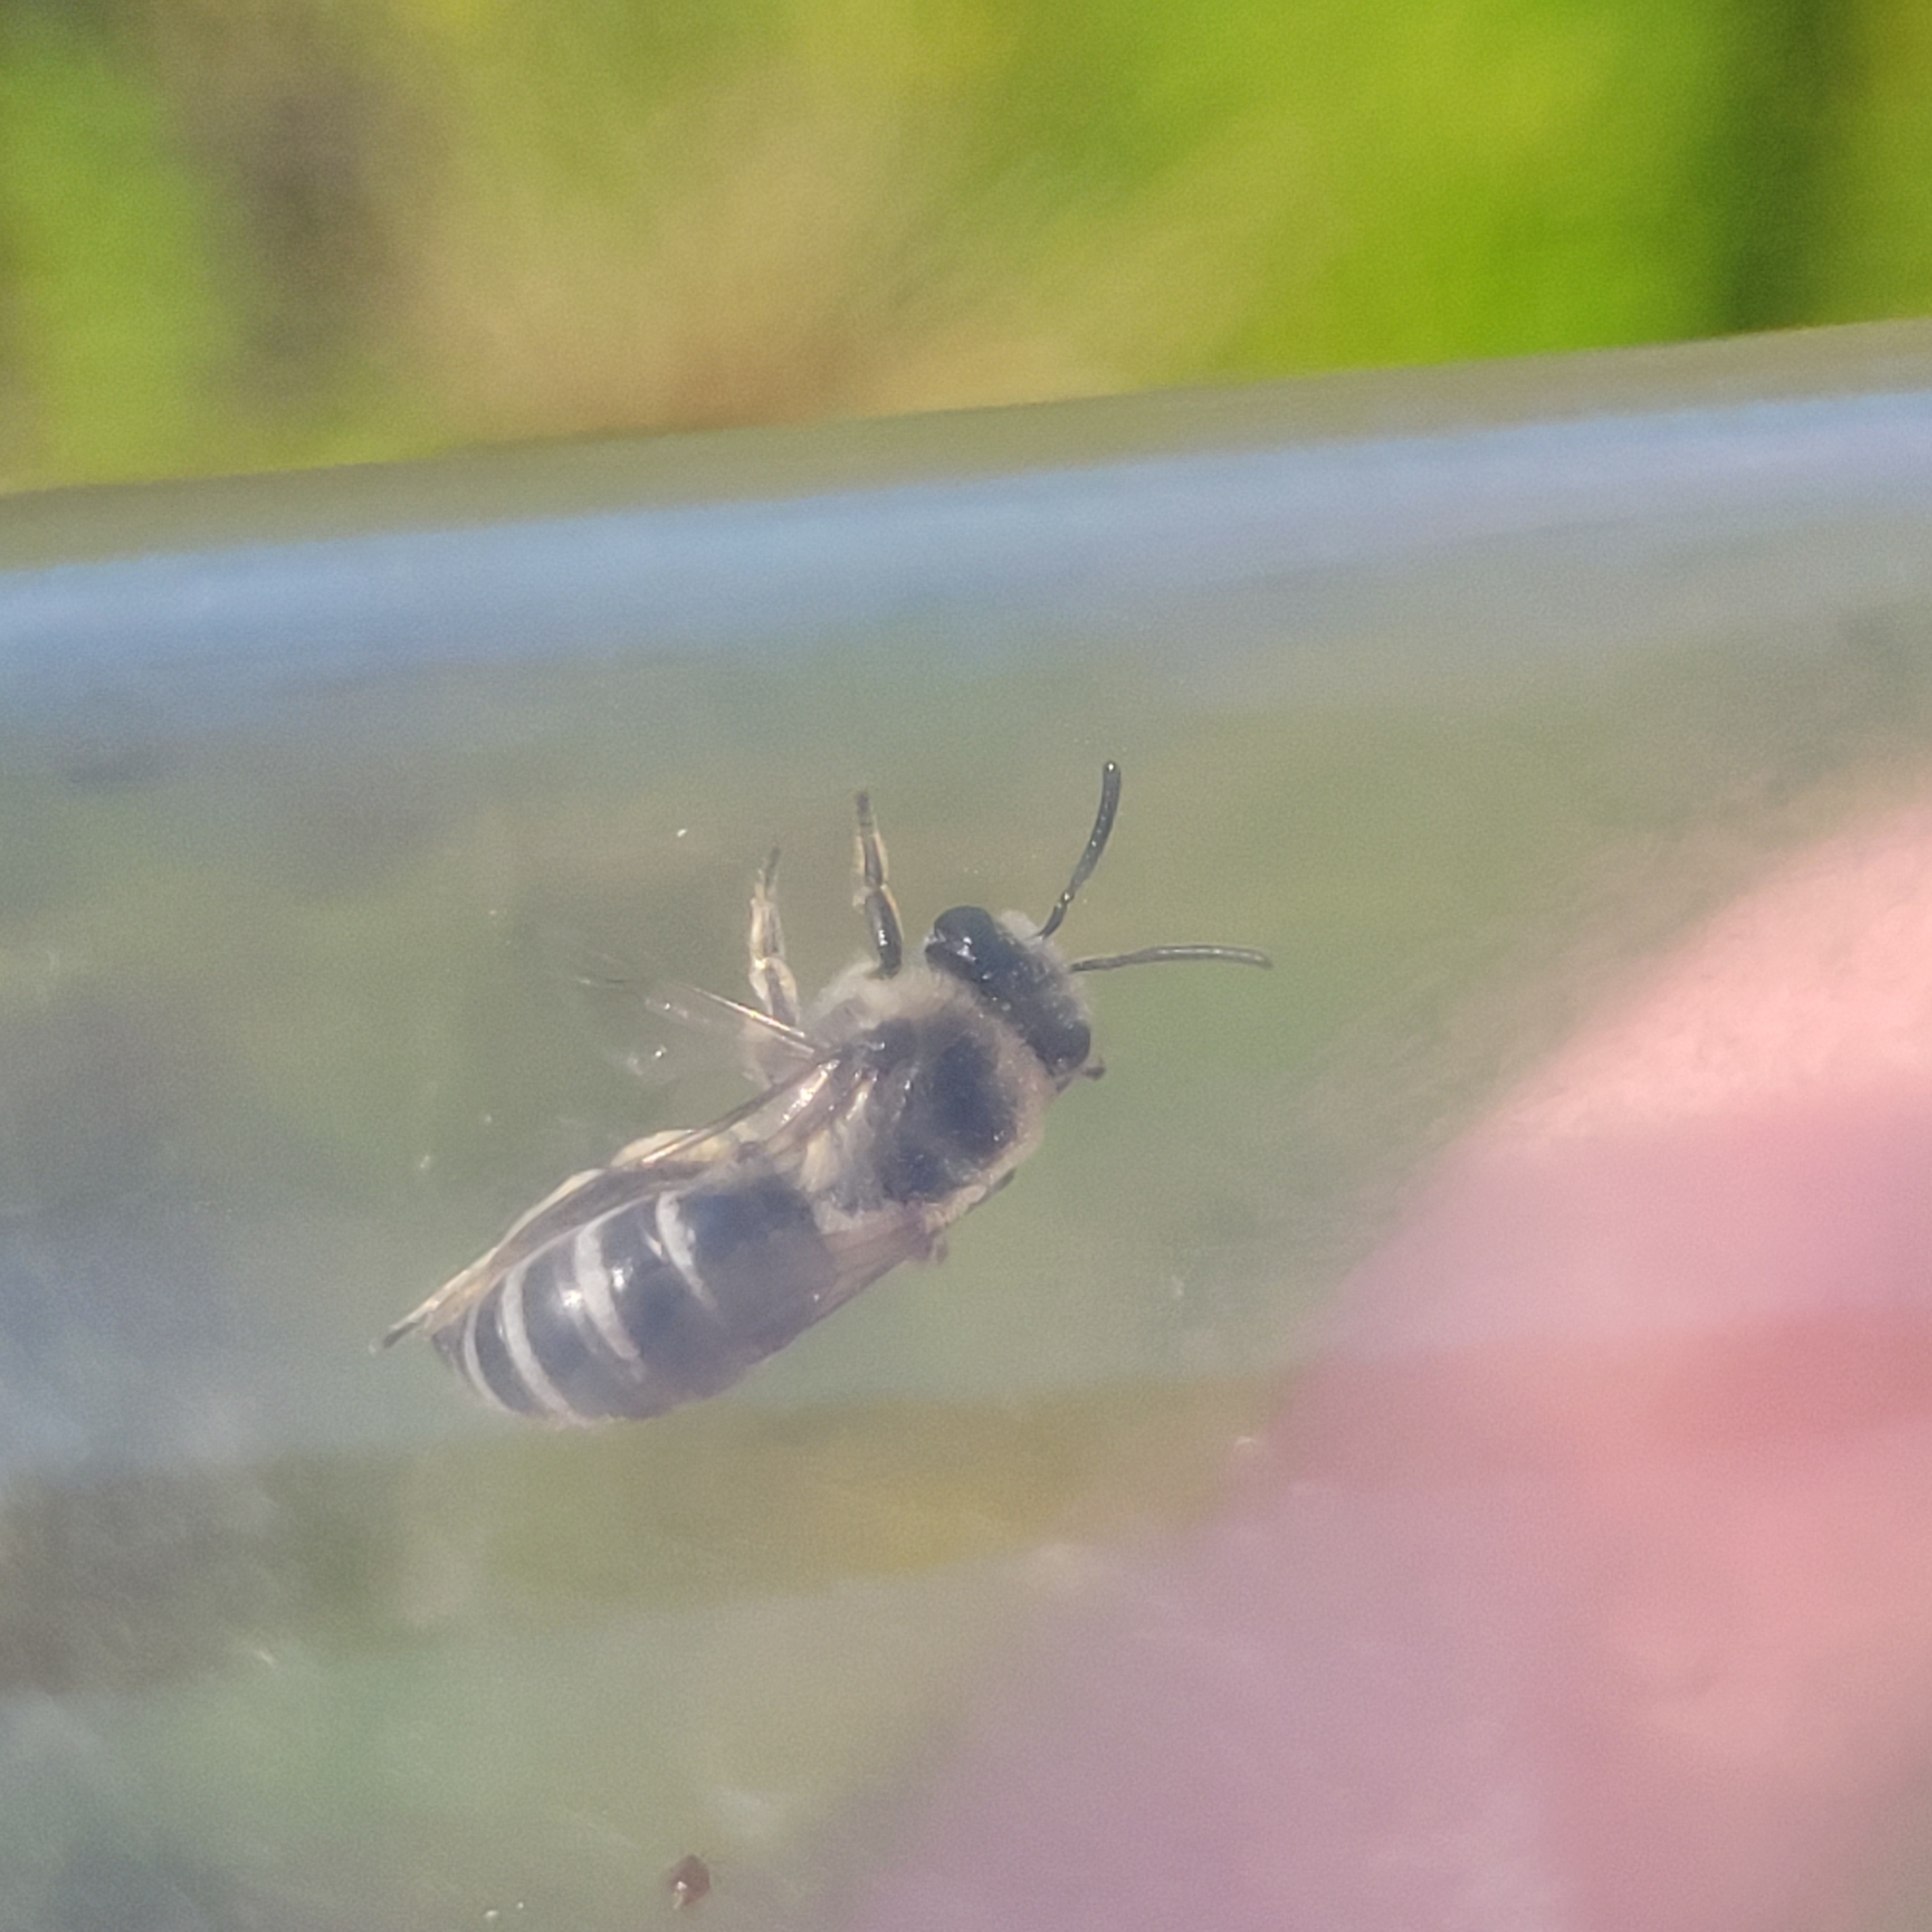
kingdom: Animalia
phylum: Arthropoda
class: Insecta
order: Hymenoptera
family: Colletidae
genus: Colletes
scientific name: Colletes productus
